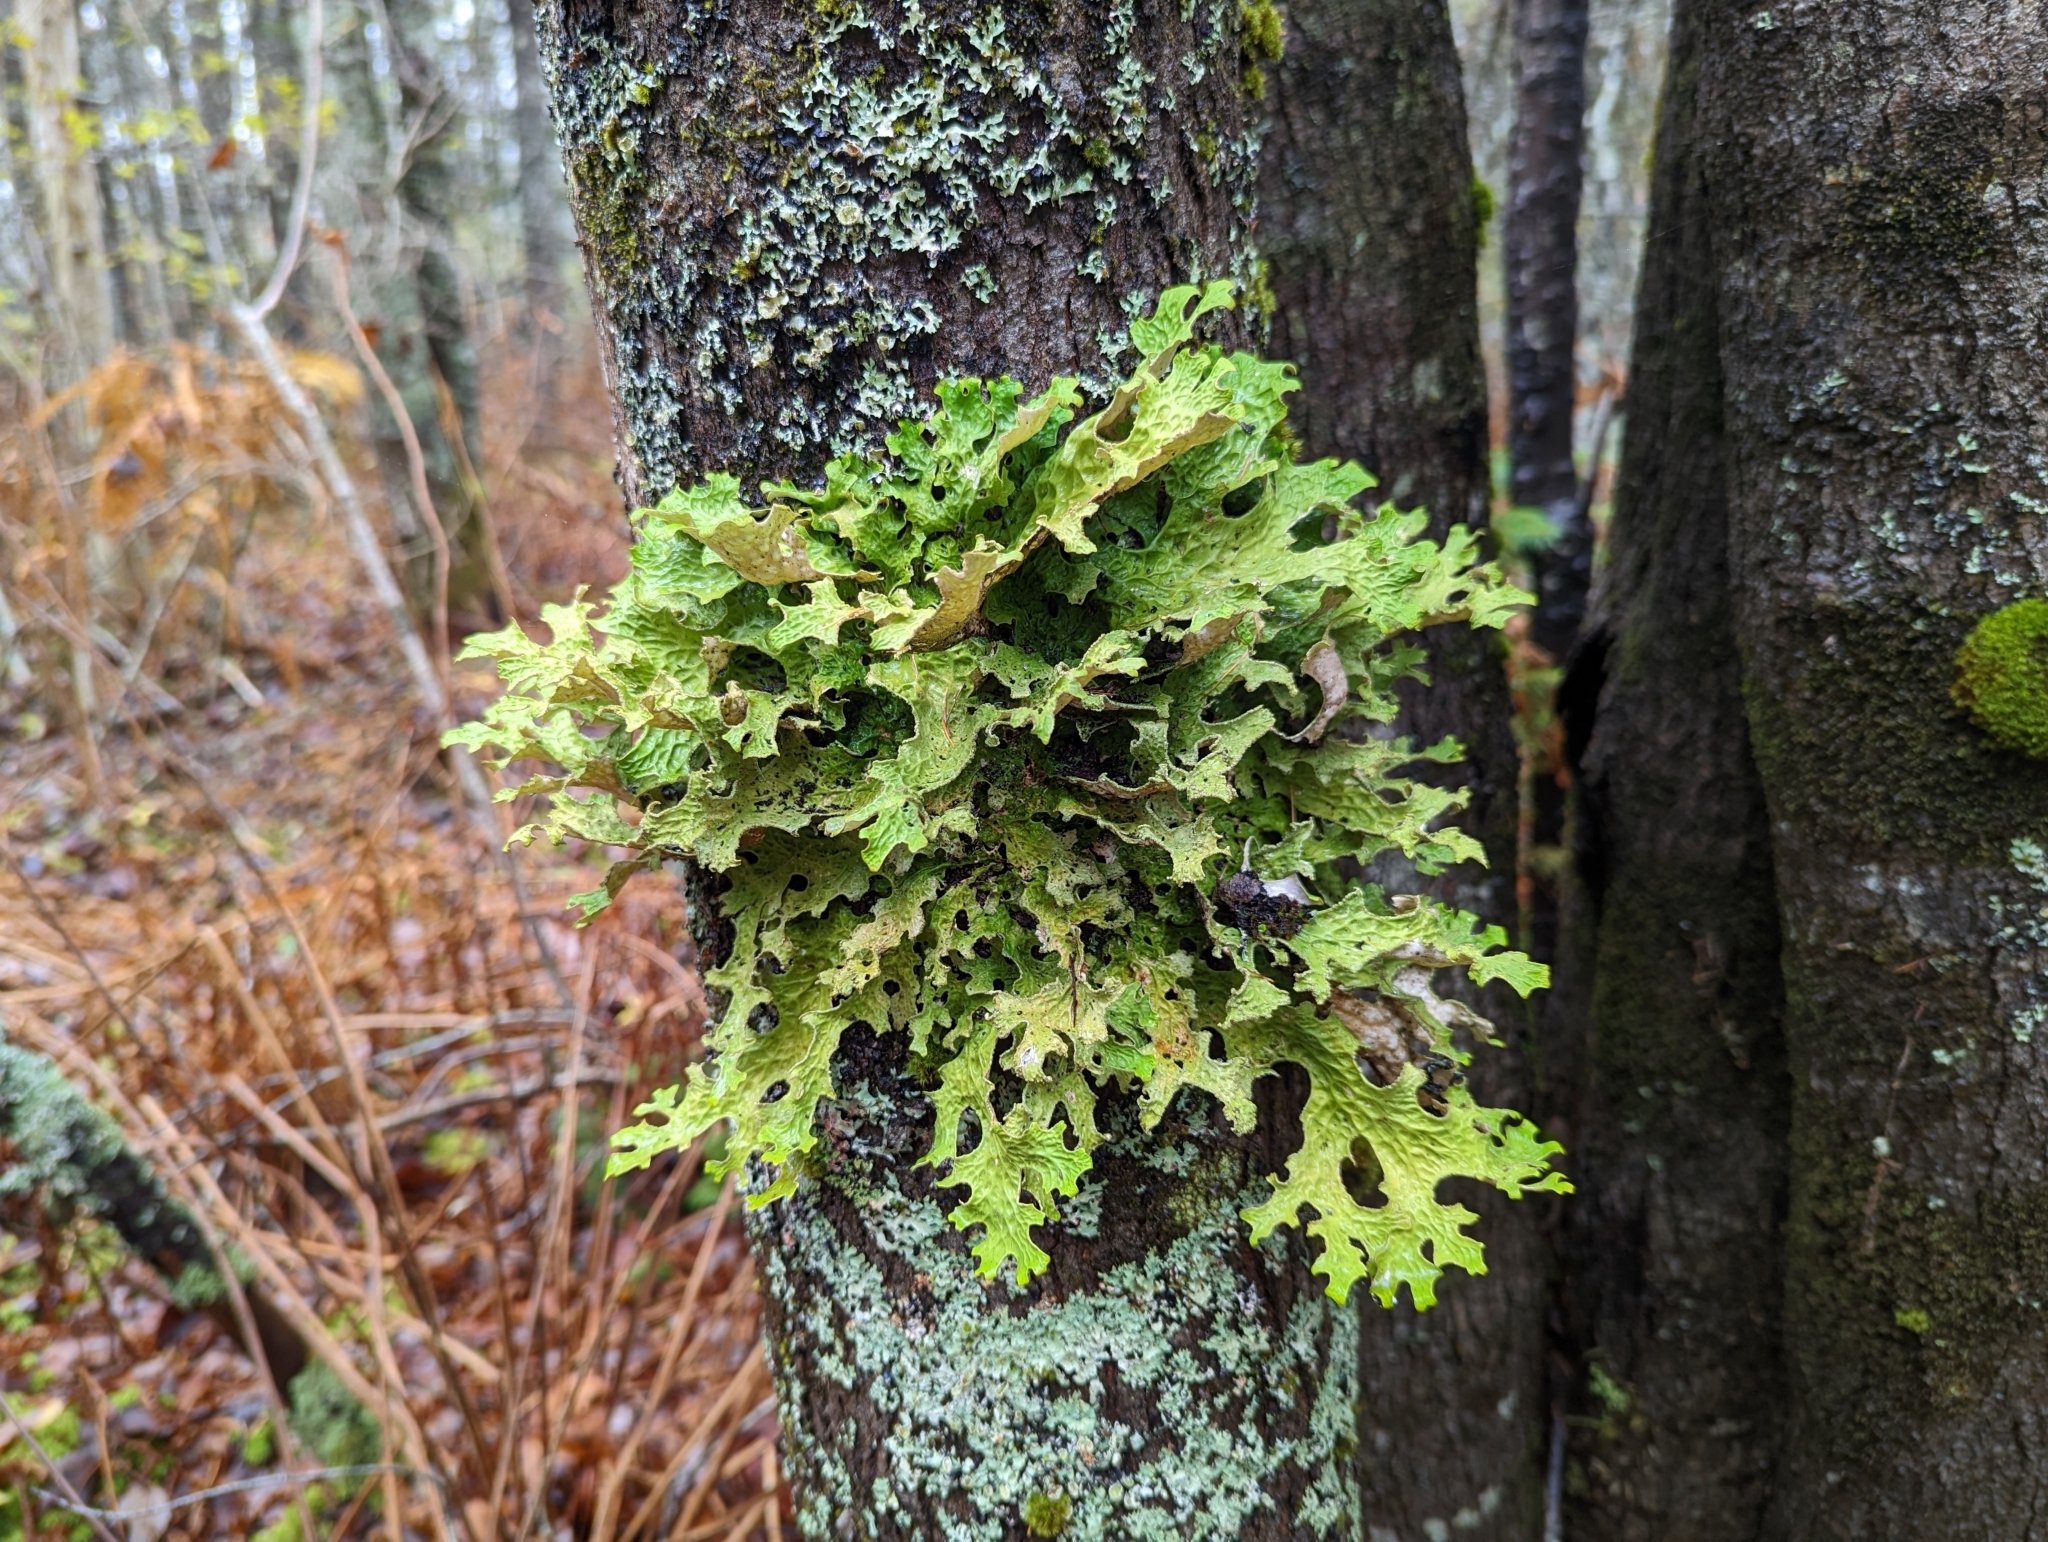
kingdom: Fungi
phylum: Ascomycota
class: Lecanoromycetes
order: Peltigerales
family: Lobariaceae
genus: Lobaria
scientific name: Lobaria pulmonaria
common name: Lungwort
